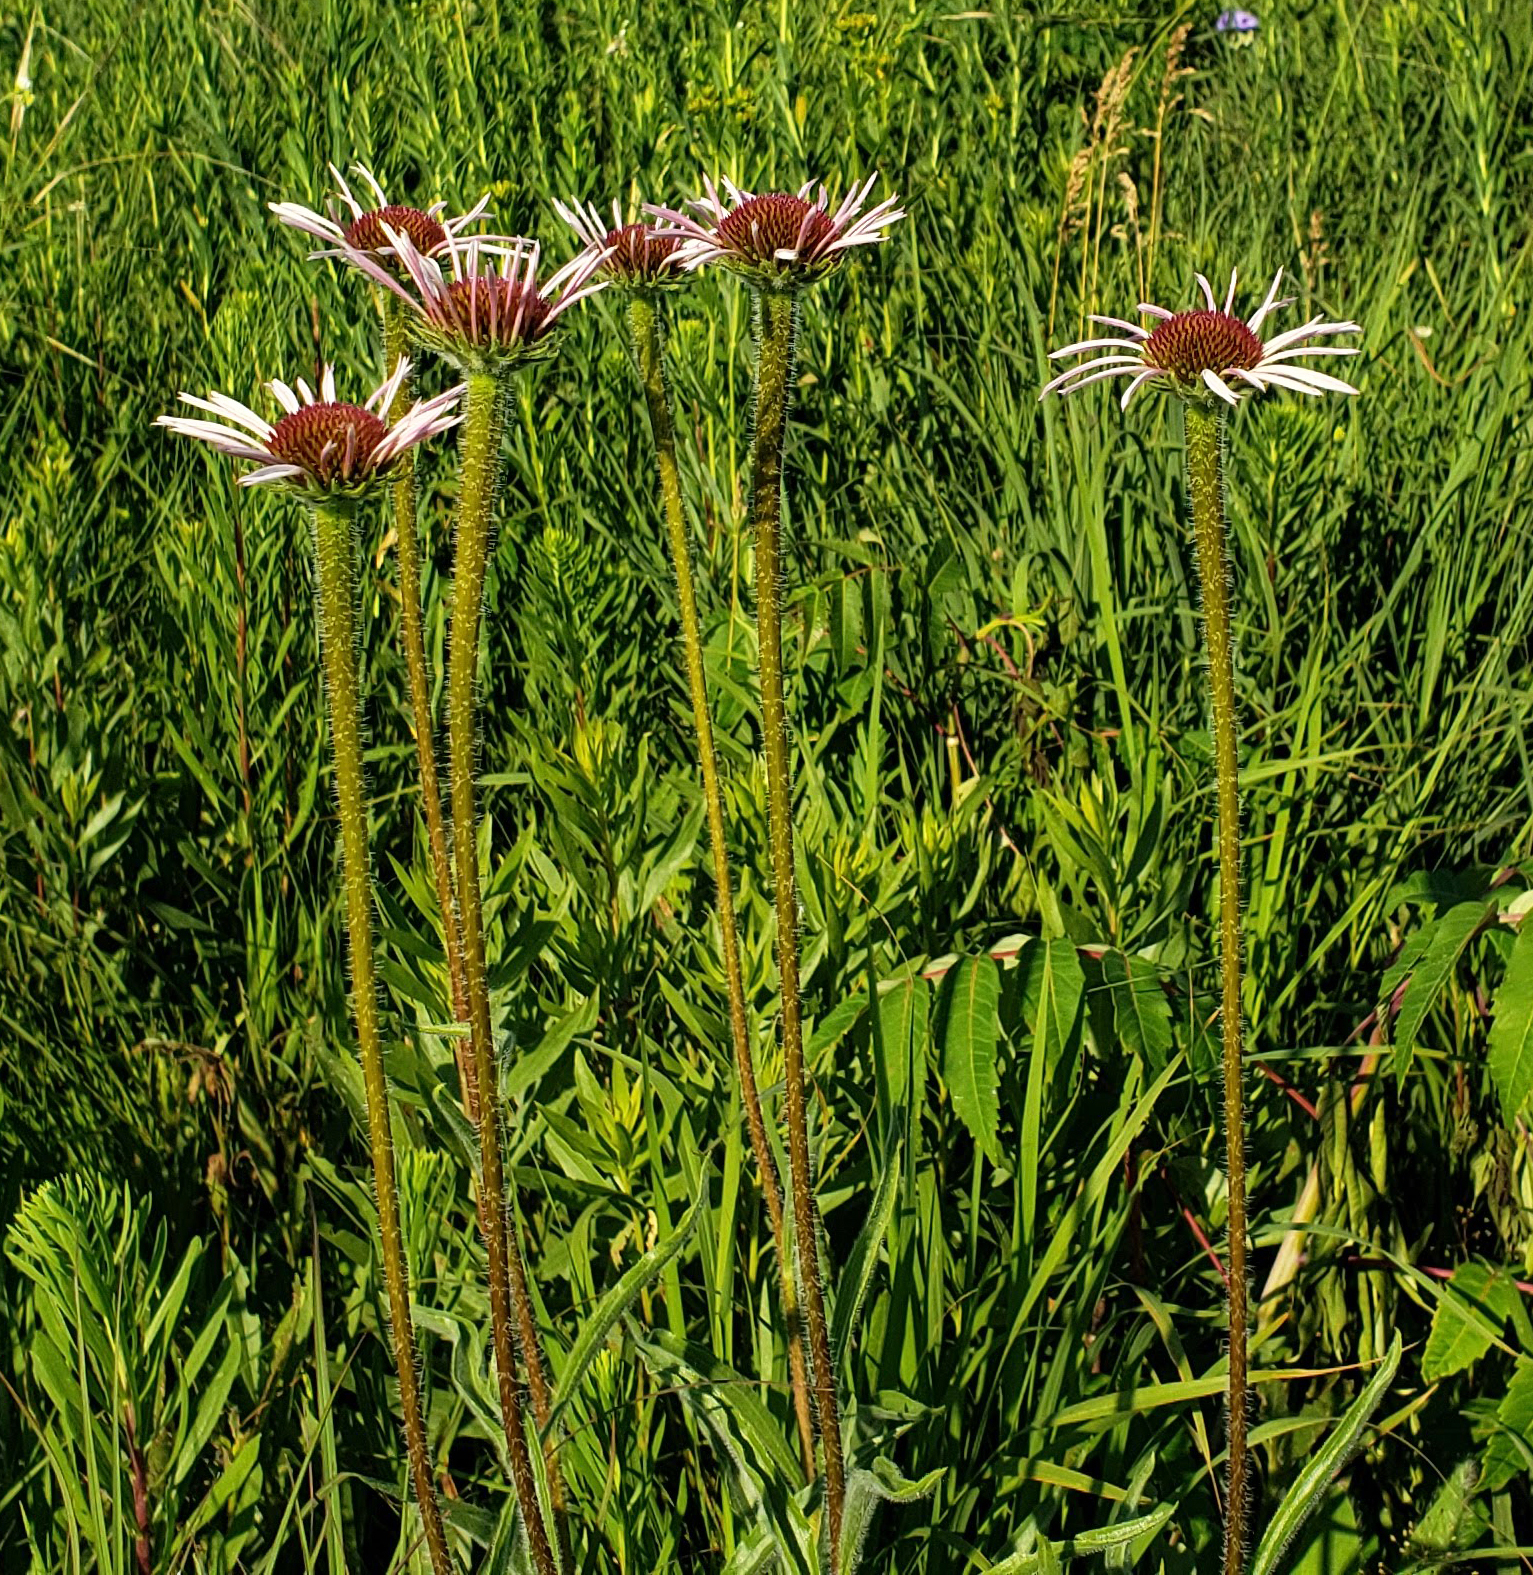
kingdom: Plantae
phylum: Tracheophyta
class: Magnoliopsida
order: Asterales
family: Asteraceae
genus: Echinacea
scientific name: Echinacea pallida
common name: Pale echinacea
